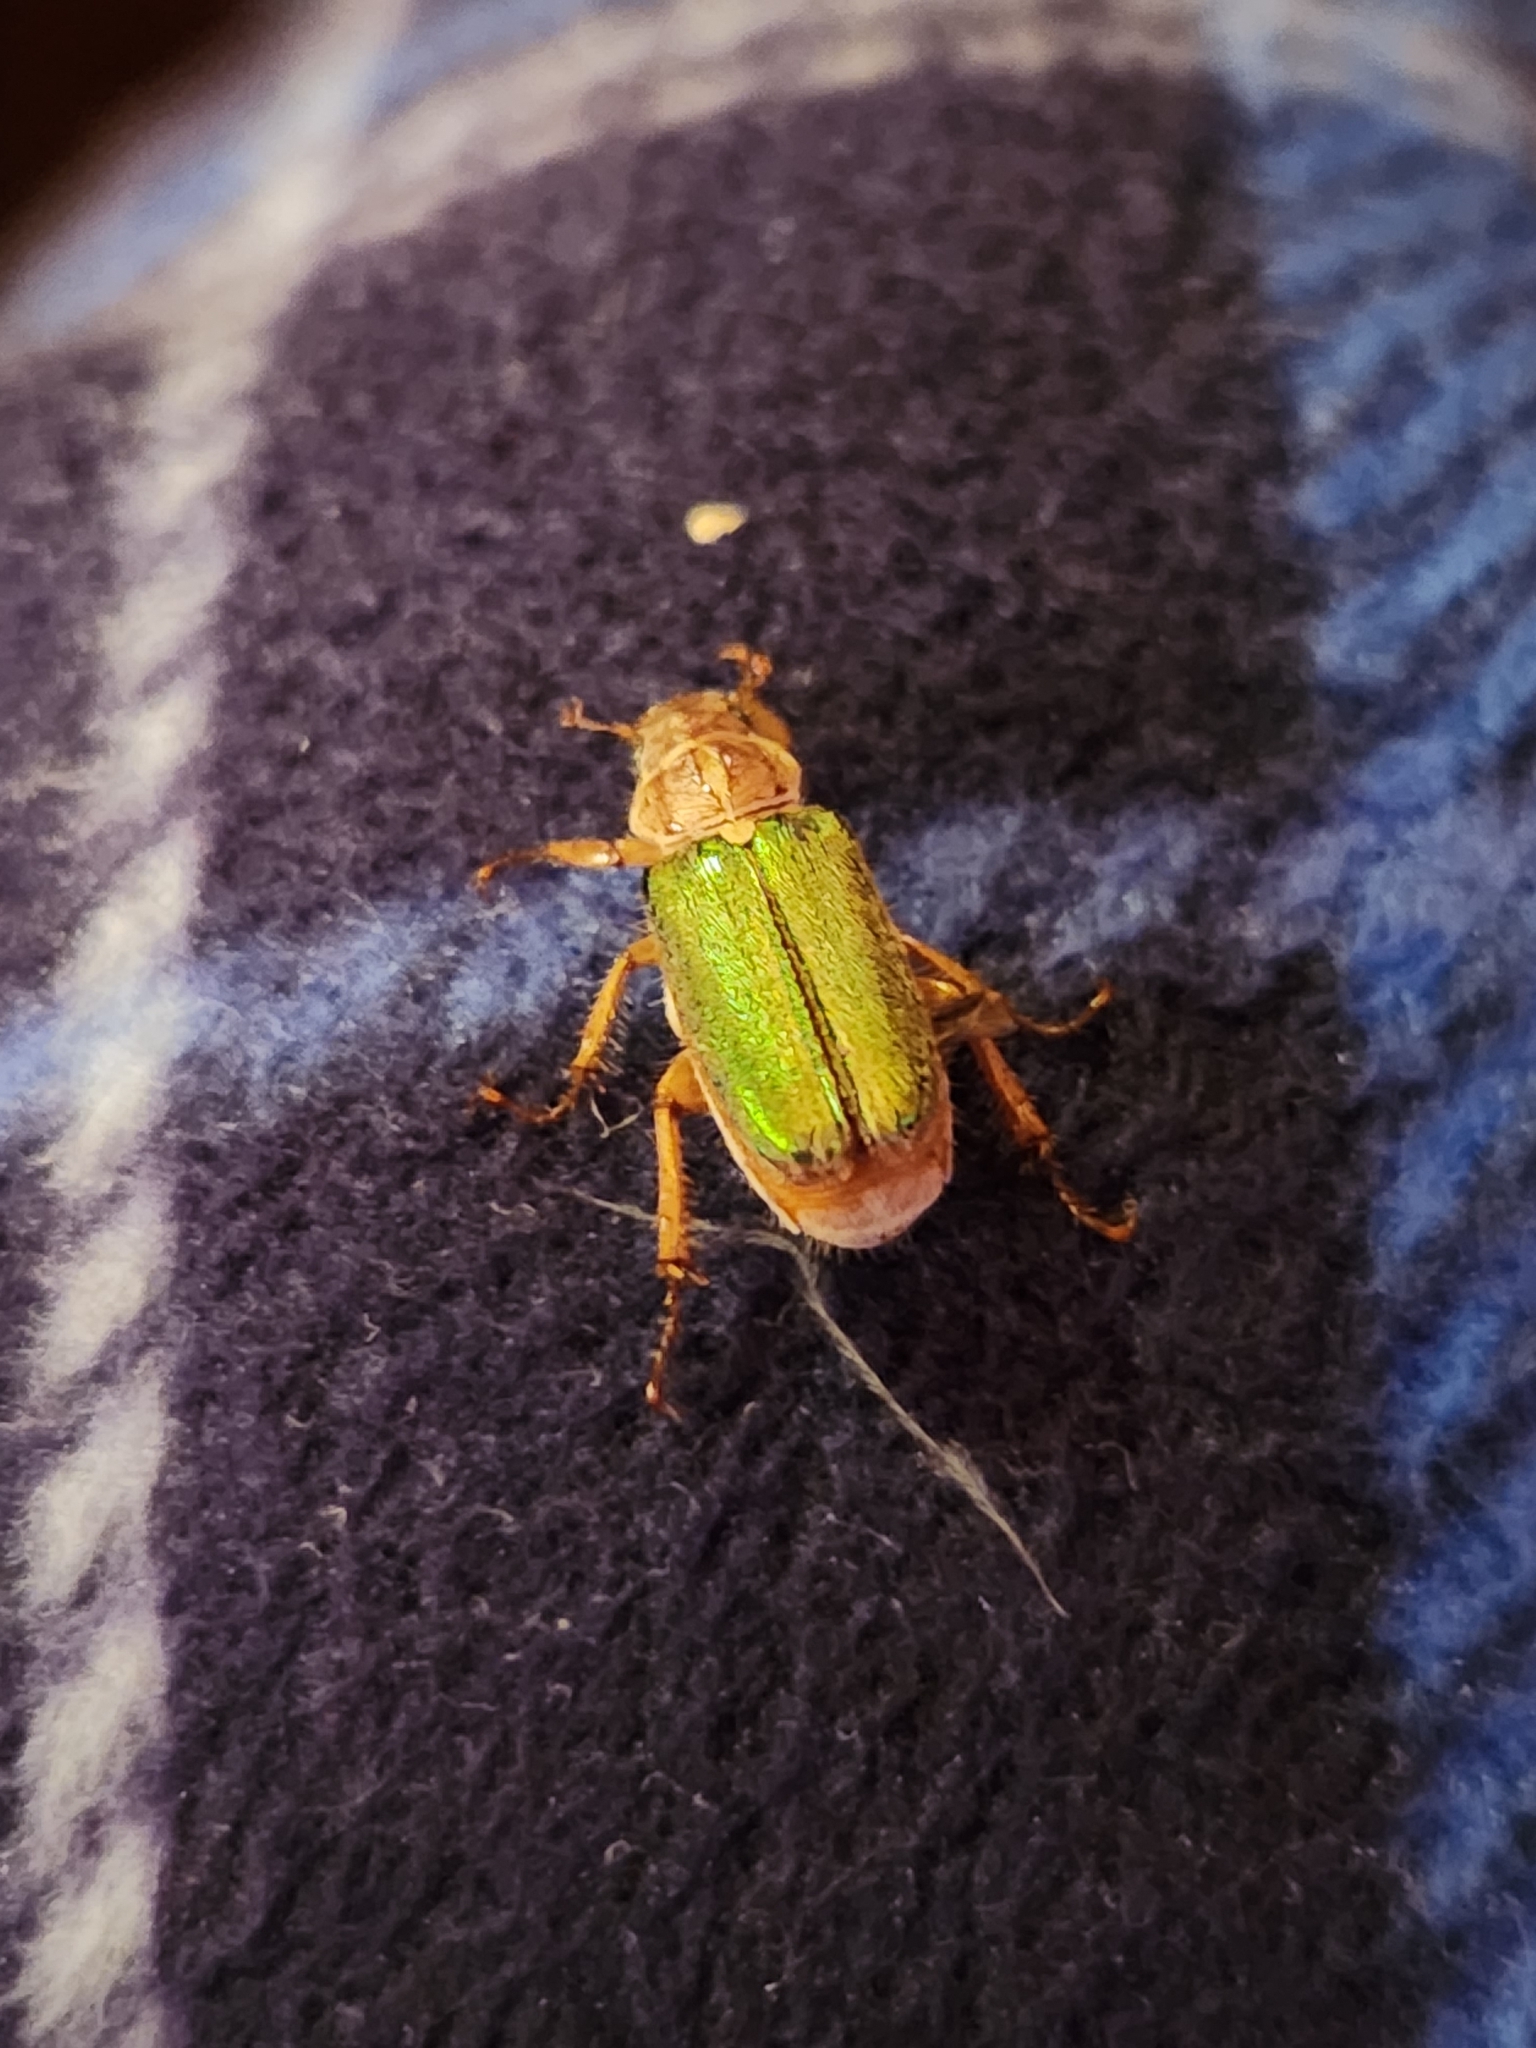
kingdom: Animalia
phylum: Arthropoda
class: Insecta
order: Coleoptera
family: Meloidae
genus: Lytta
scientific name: Lytta stygica
